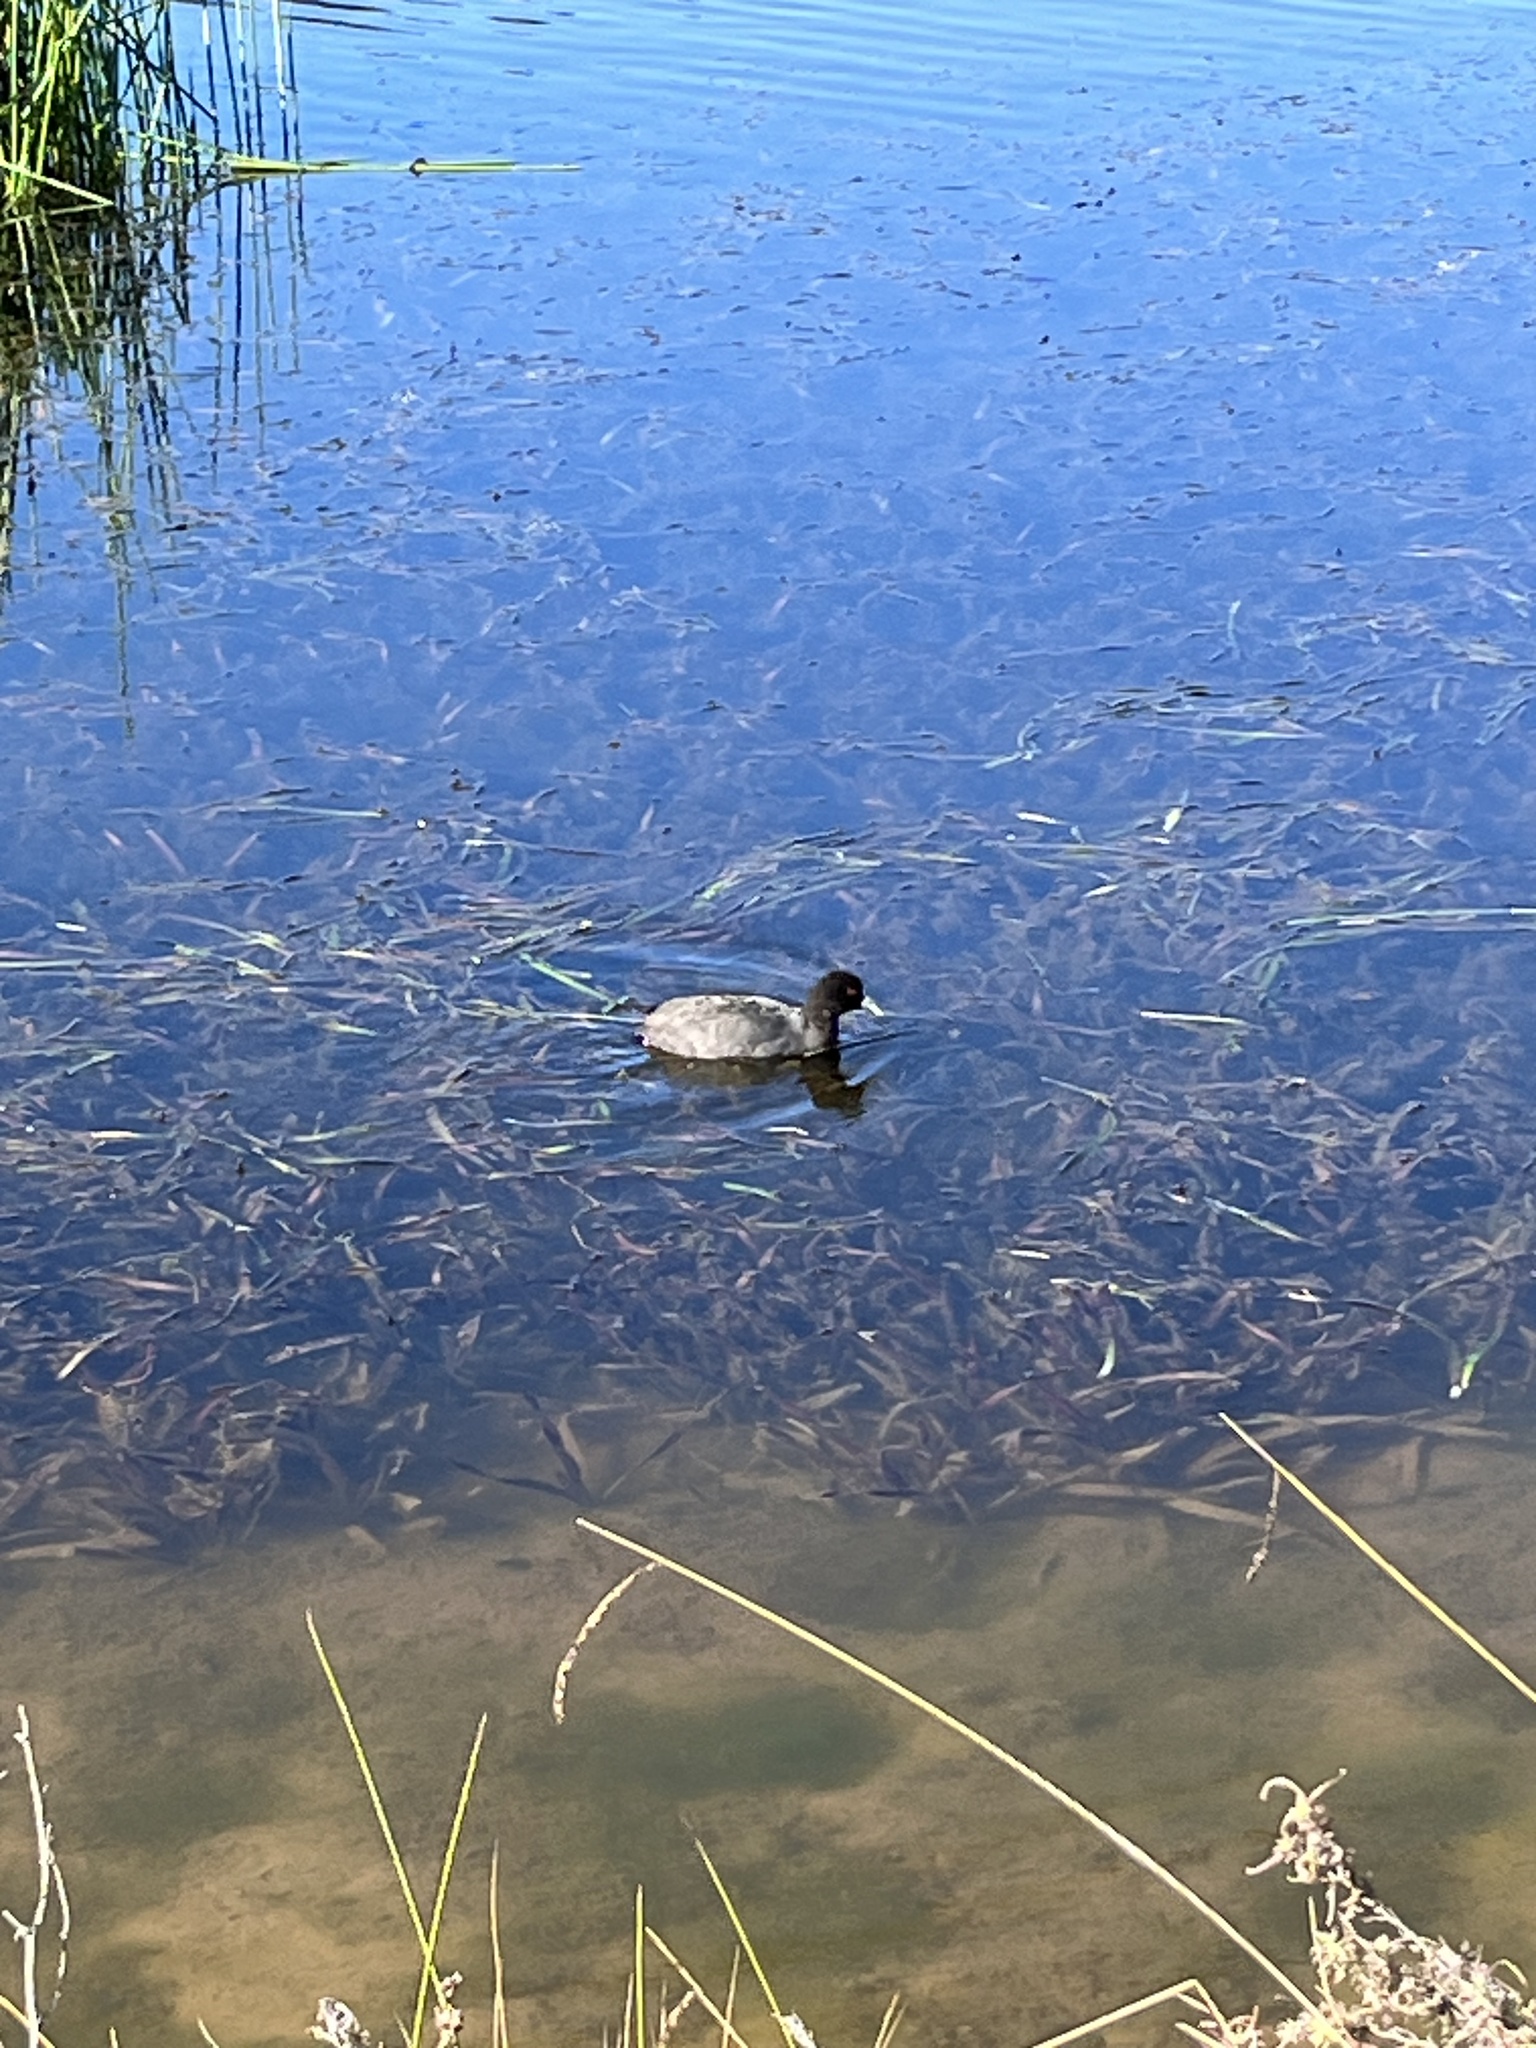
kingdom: Animalia
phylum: Chordata
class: Aves
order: Gruiformes
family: Rallidae
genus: Fulica
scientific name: Fulica atra
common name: Eurasian coot
